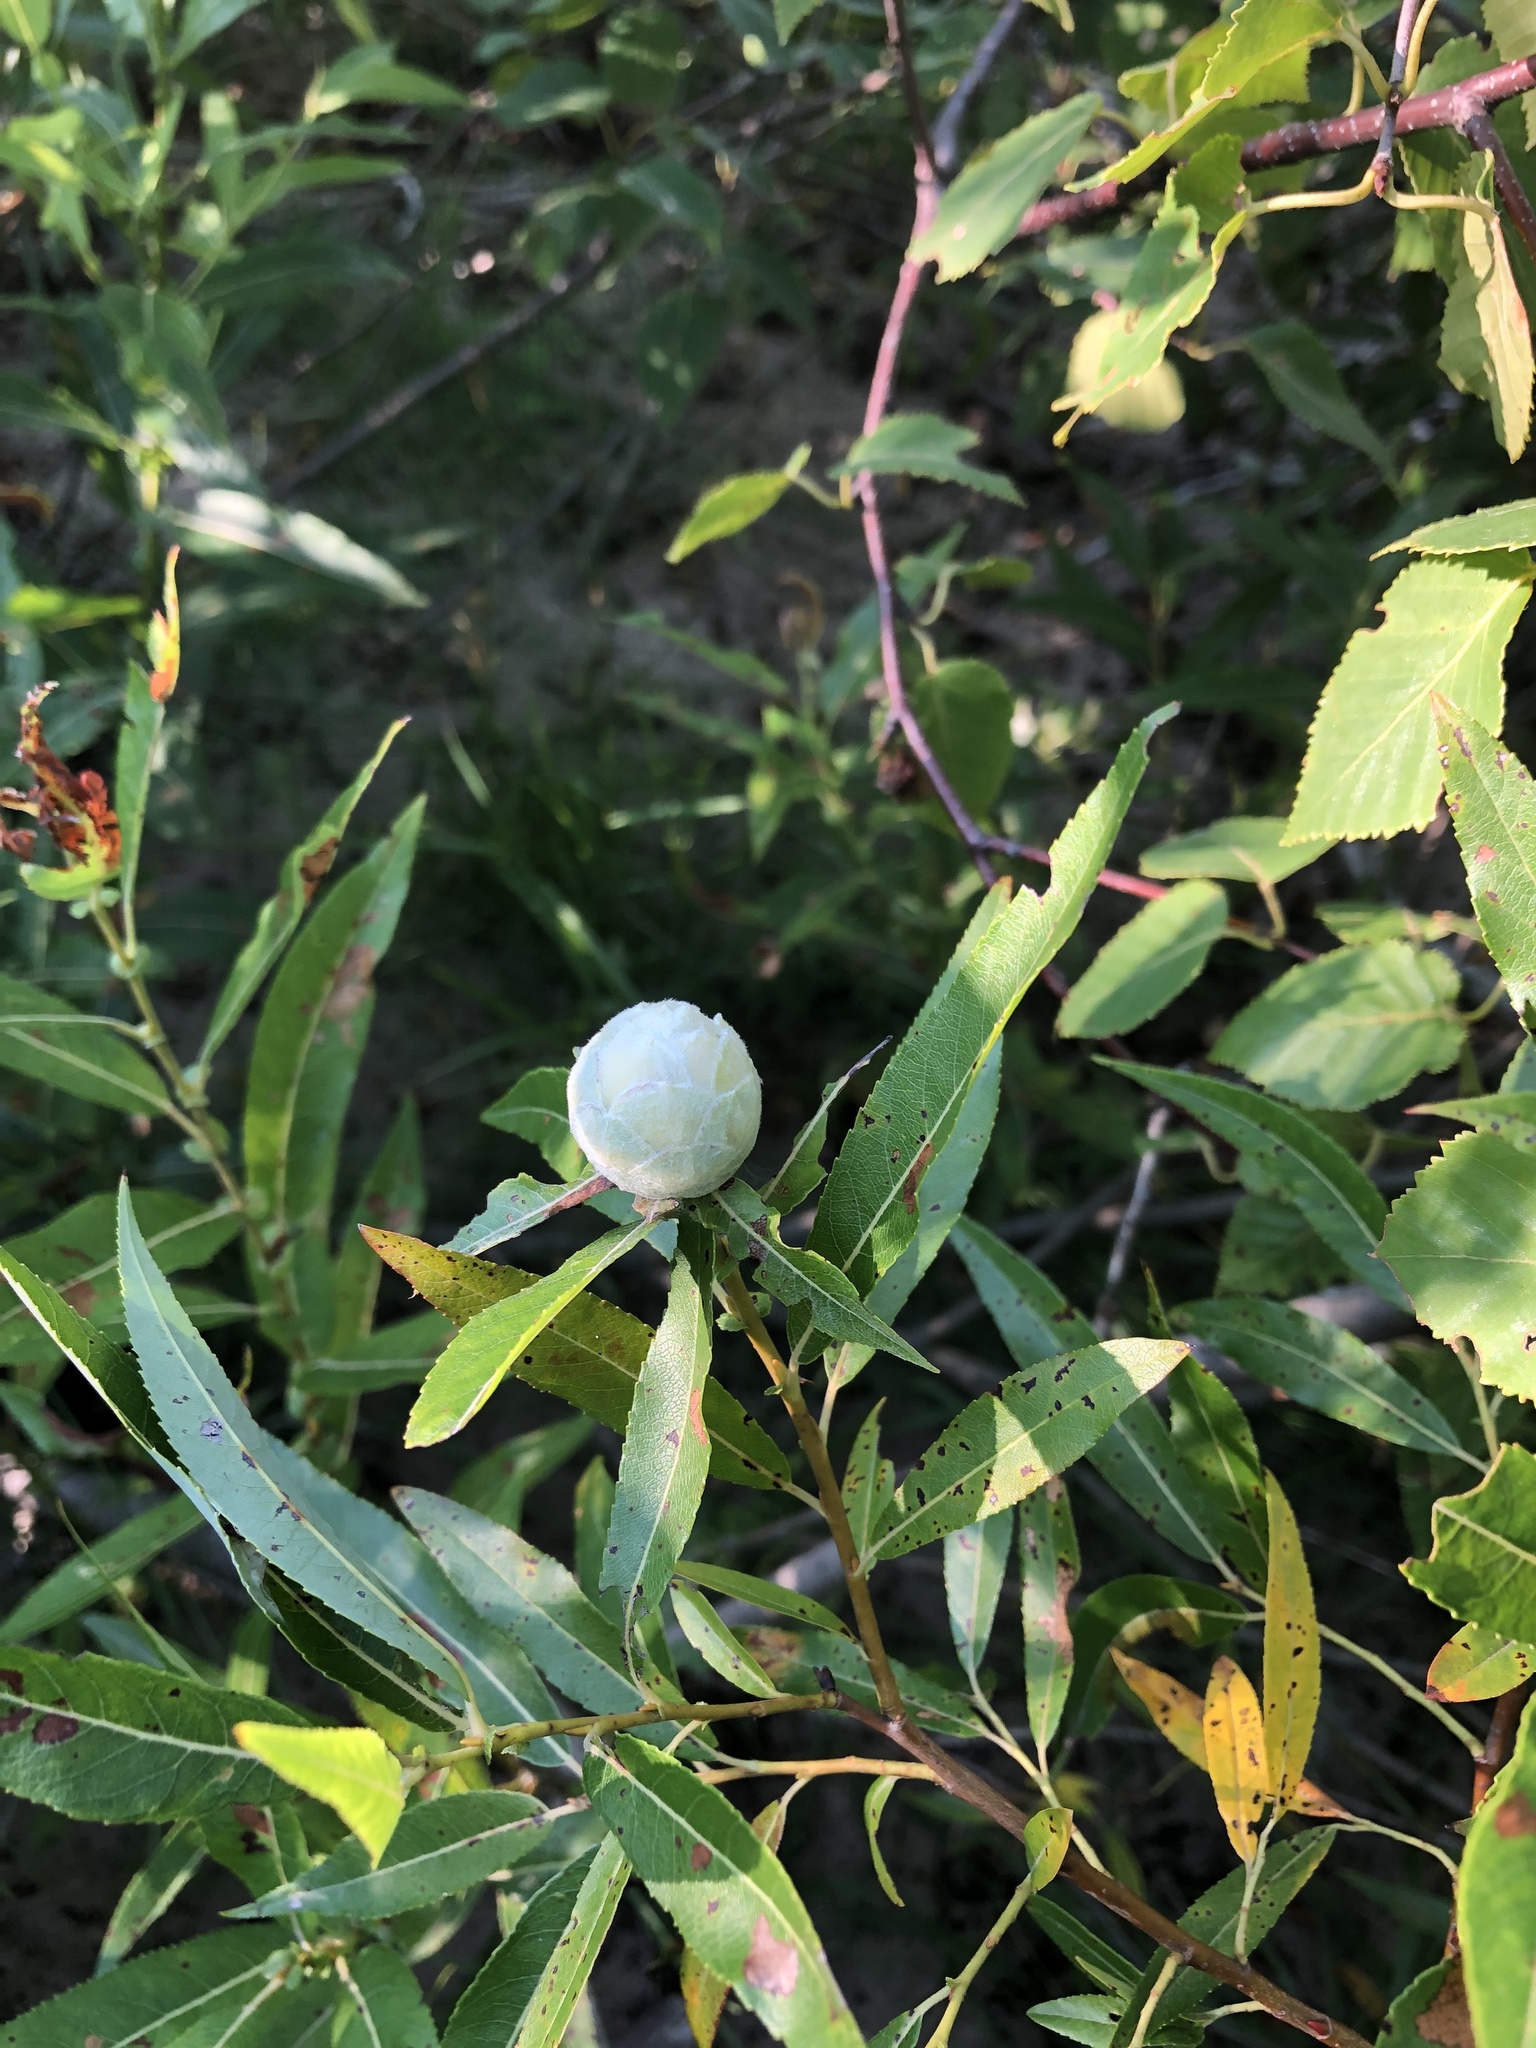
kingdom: Animalia
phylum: Arthropoda
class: Insecta
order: Diptera
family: Cecidomyiidae
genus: Rabdophaga
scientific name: Rabdophaga strobiloides
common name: Willow pinecone gall midge
